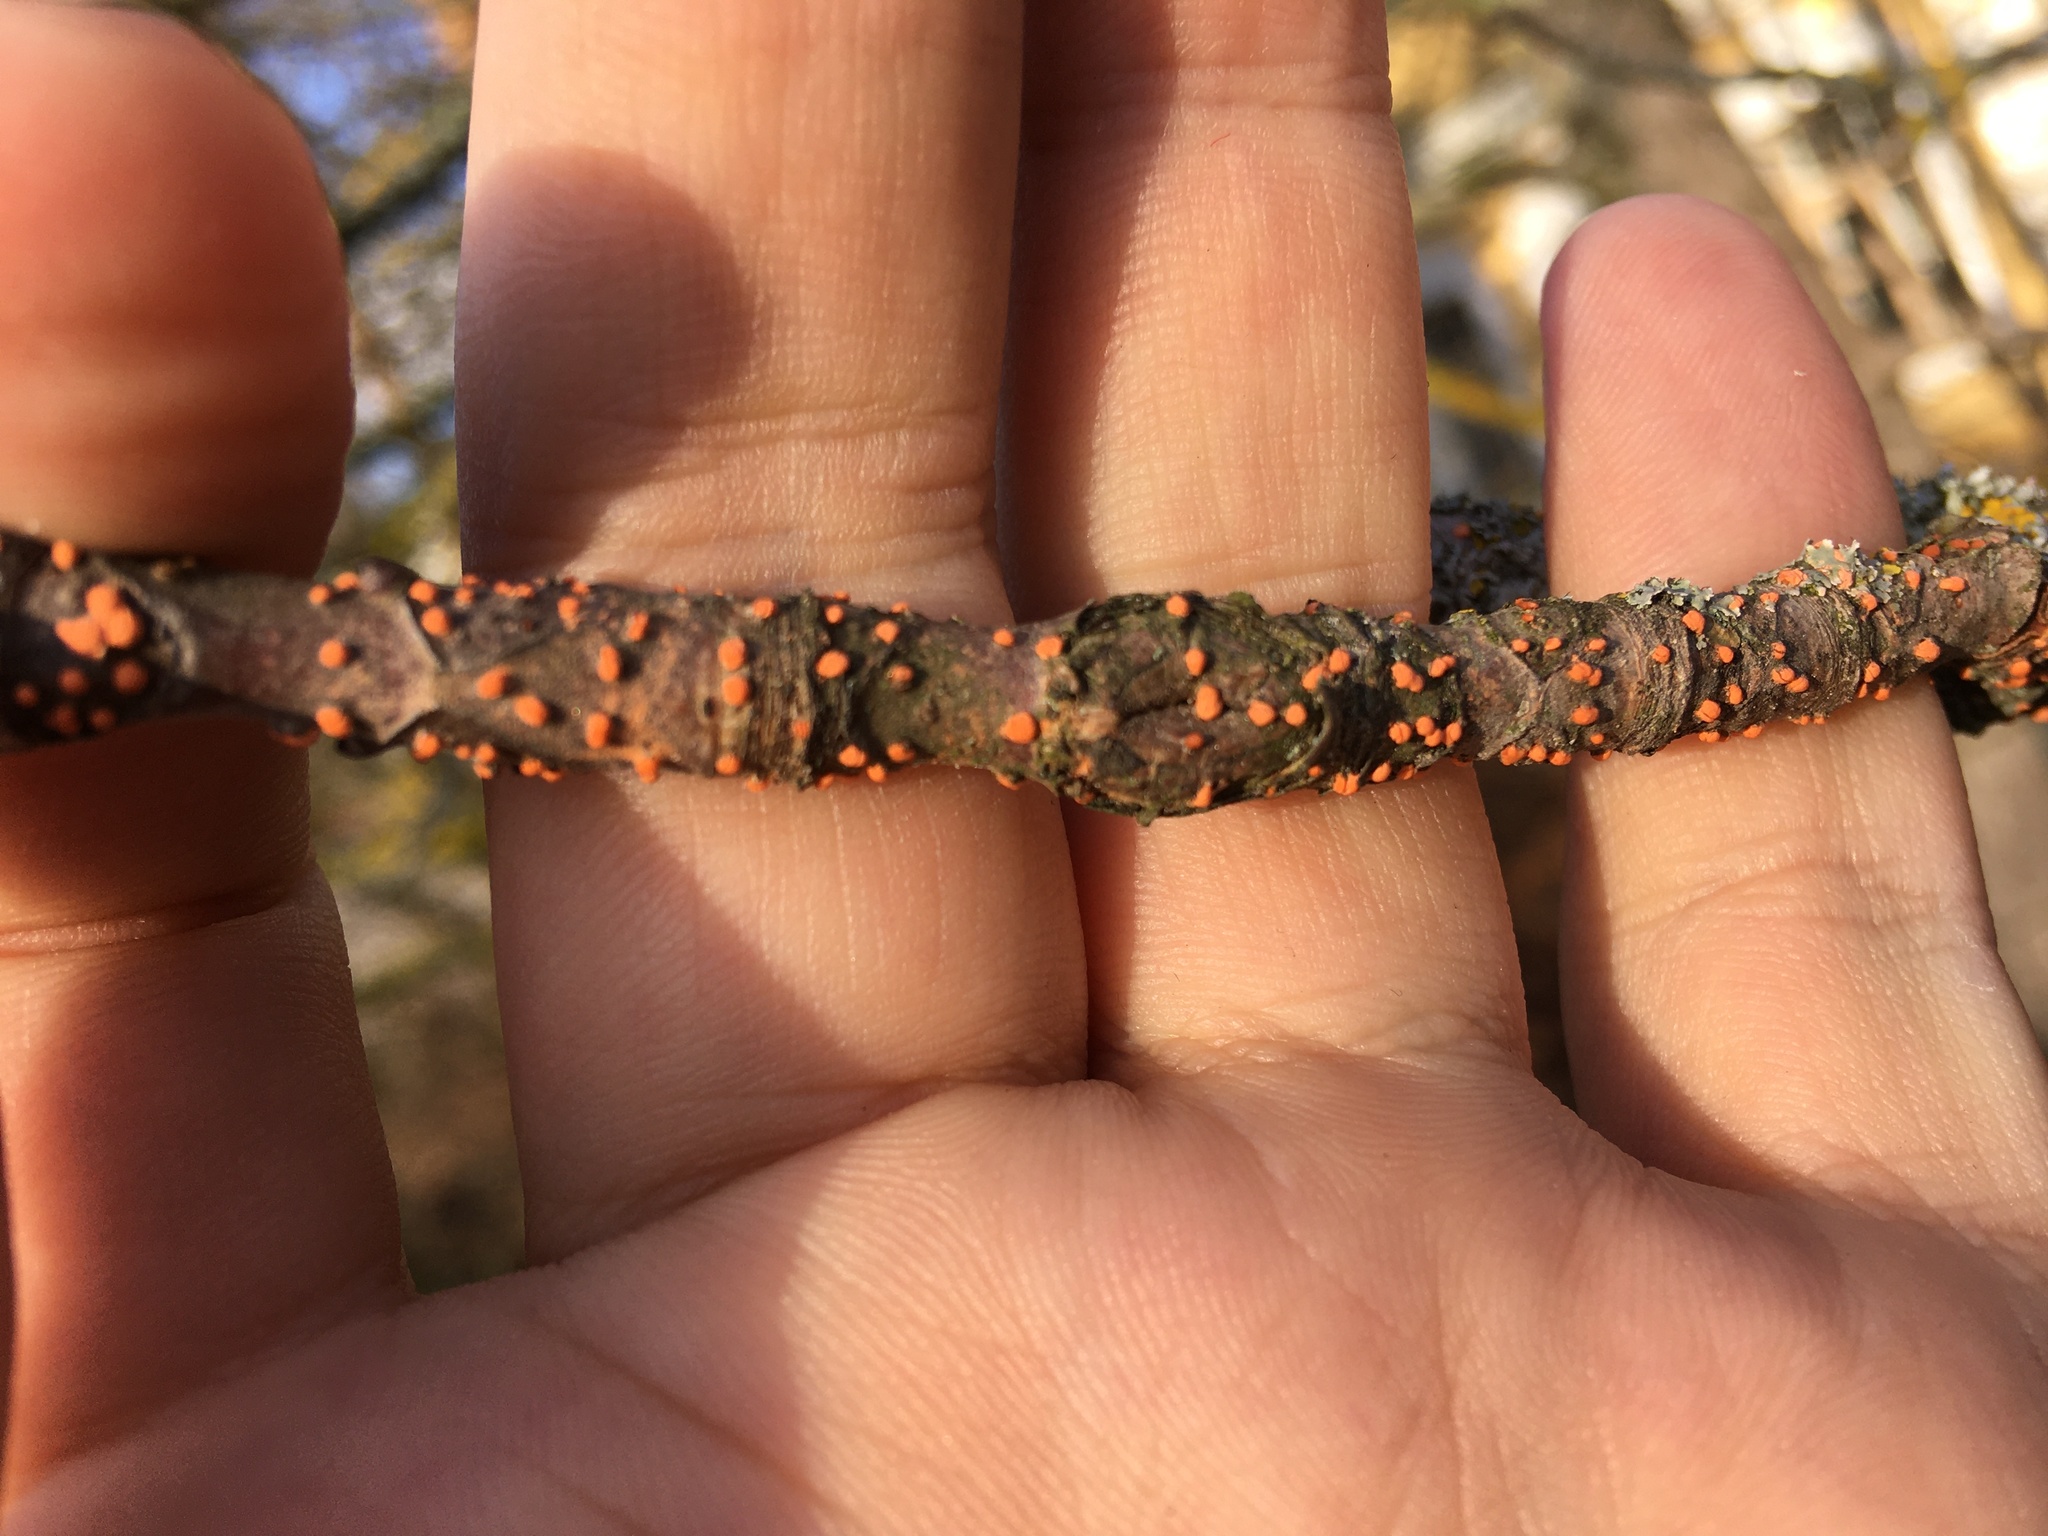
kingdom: Fungi
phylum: Ascomycota
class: Sordariomycetes
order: Hypocreales
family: Nectriaceae
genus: Nectria
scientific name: Nectria cinnabarina
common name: Coral spot
